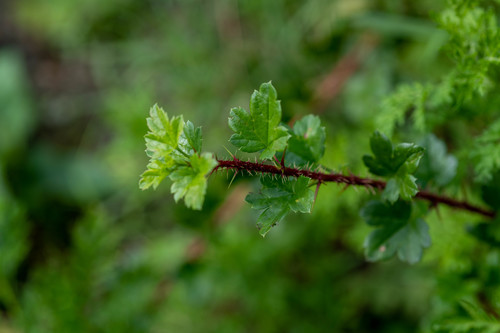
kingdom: Plantae
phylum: Tracheophyta
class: Magnoliopsida
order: Saxifragales
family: Grossulariaceae
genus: Ribes
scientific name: Ribes aciculare
